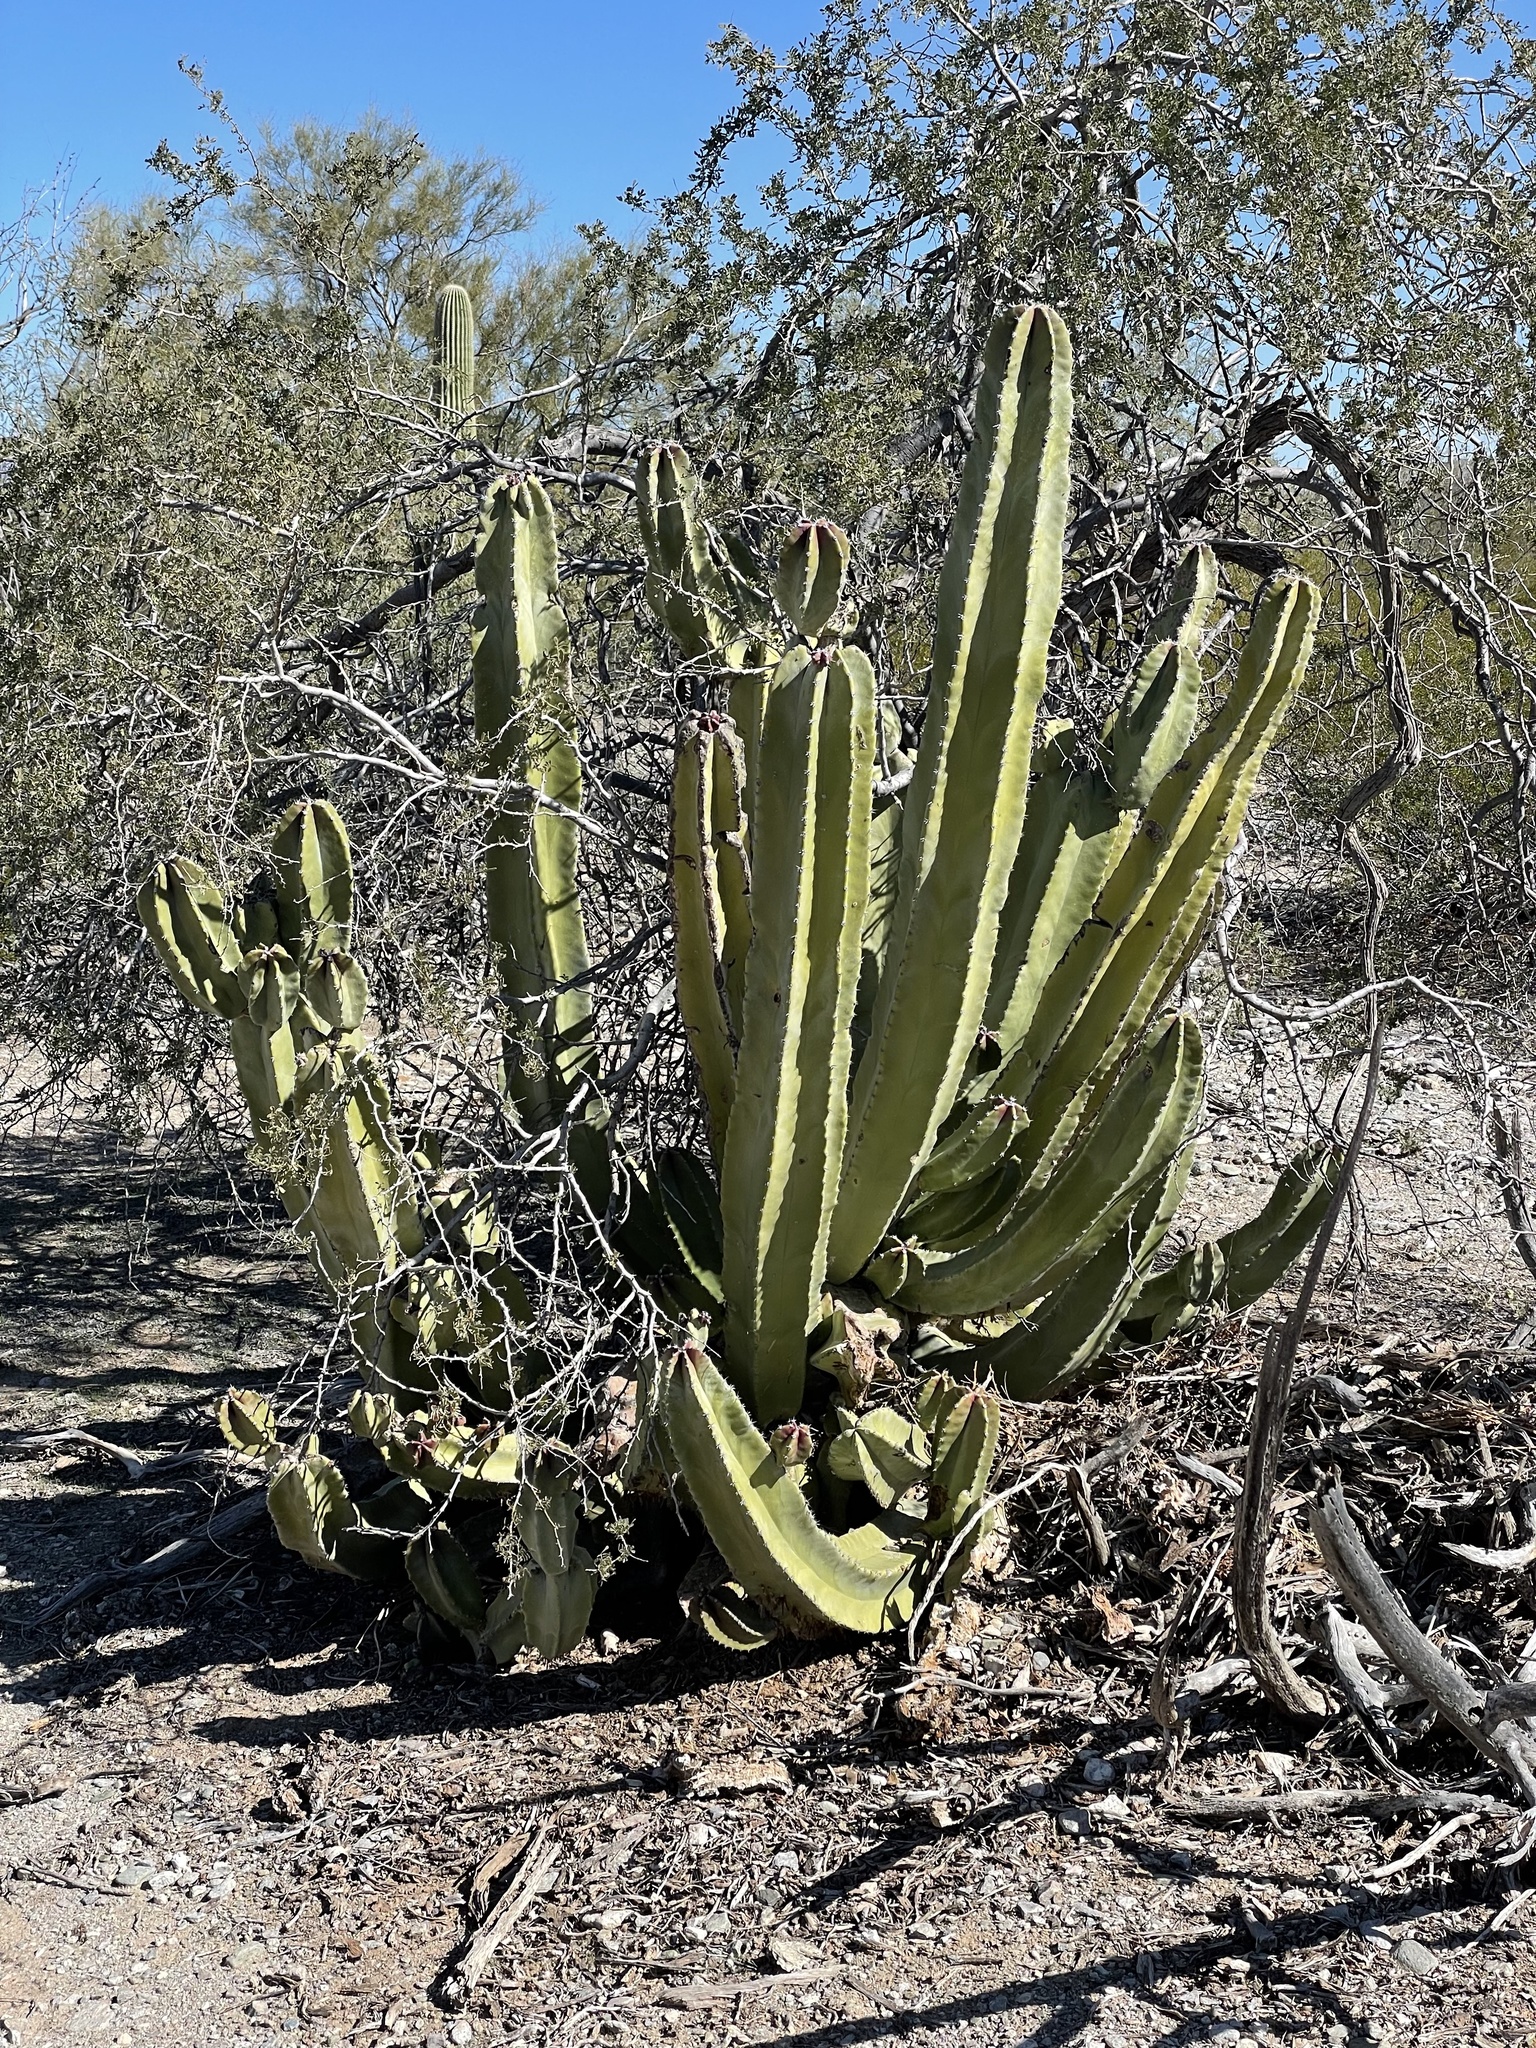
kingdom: Plantae
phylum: Tracheophyta
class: Magnoliopsida
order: Caryophyllales
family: Cactaceae
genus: Pachycereus
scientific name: Pachycereus schottii
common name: Senita cactus
